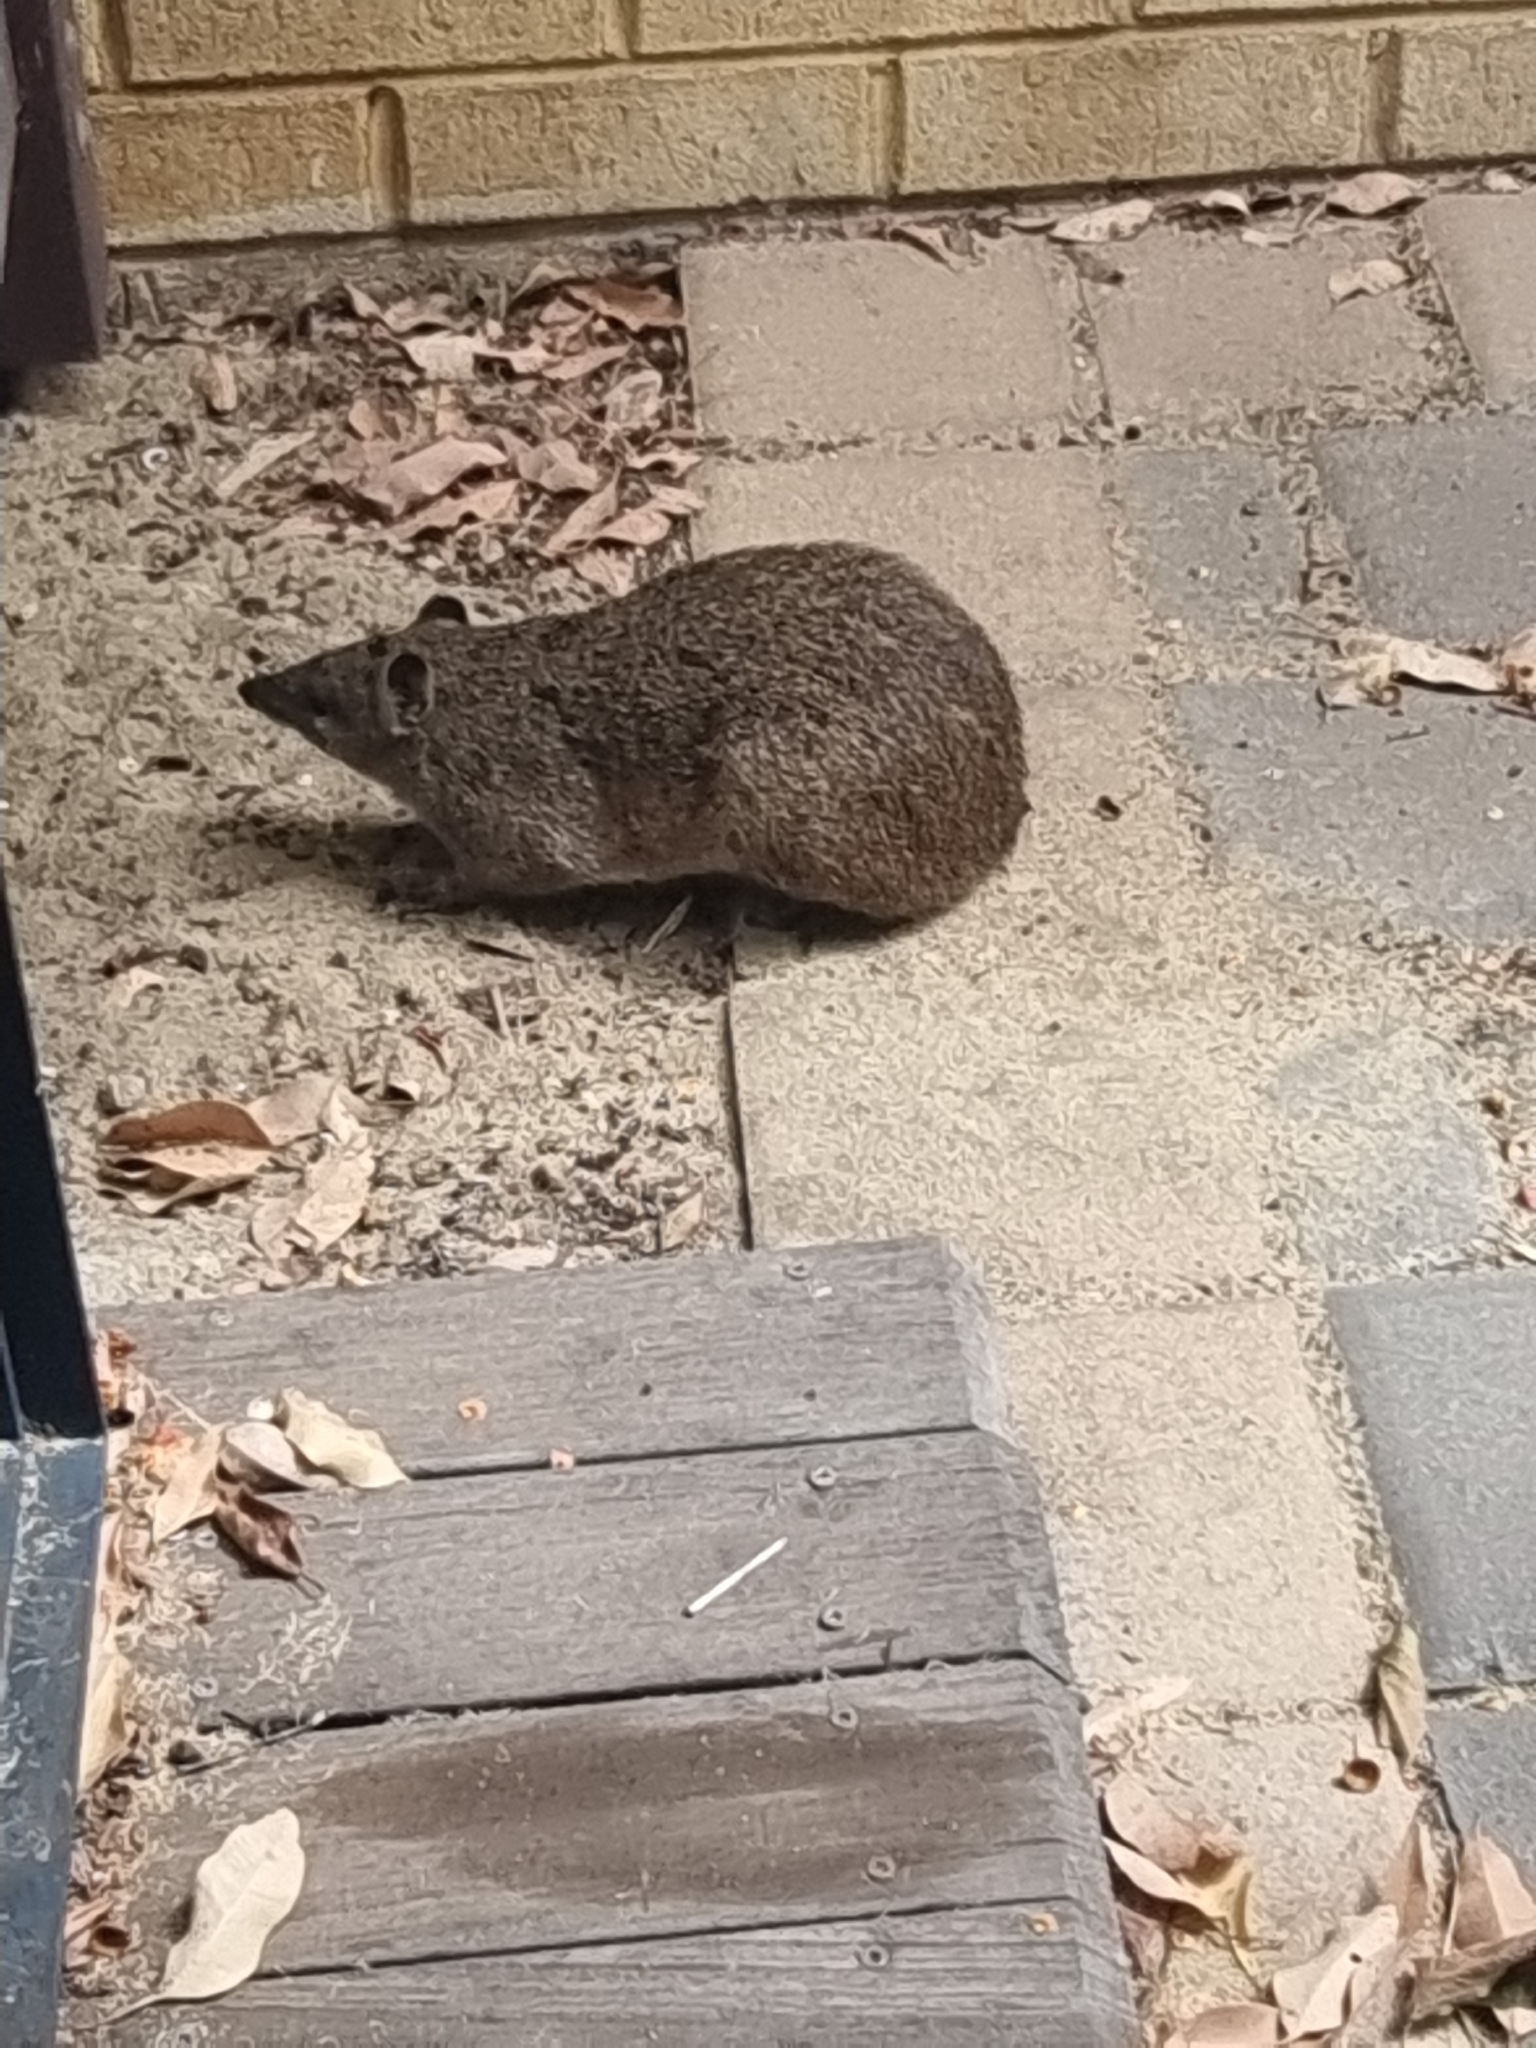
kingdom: Animalia
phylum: Chordata
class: Mammalia
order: Peramelemorphia
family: Peramelidae
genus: Isoodon
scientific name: Isoodon fusciventer
